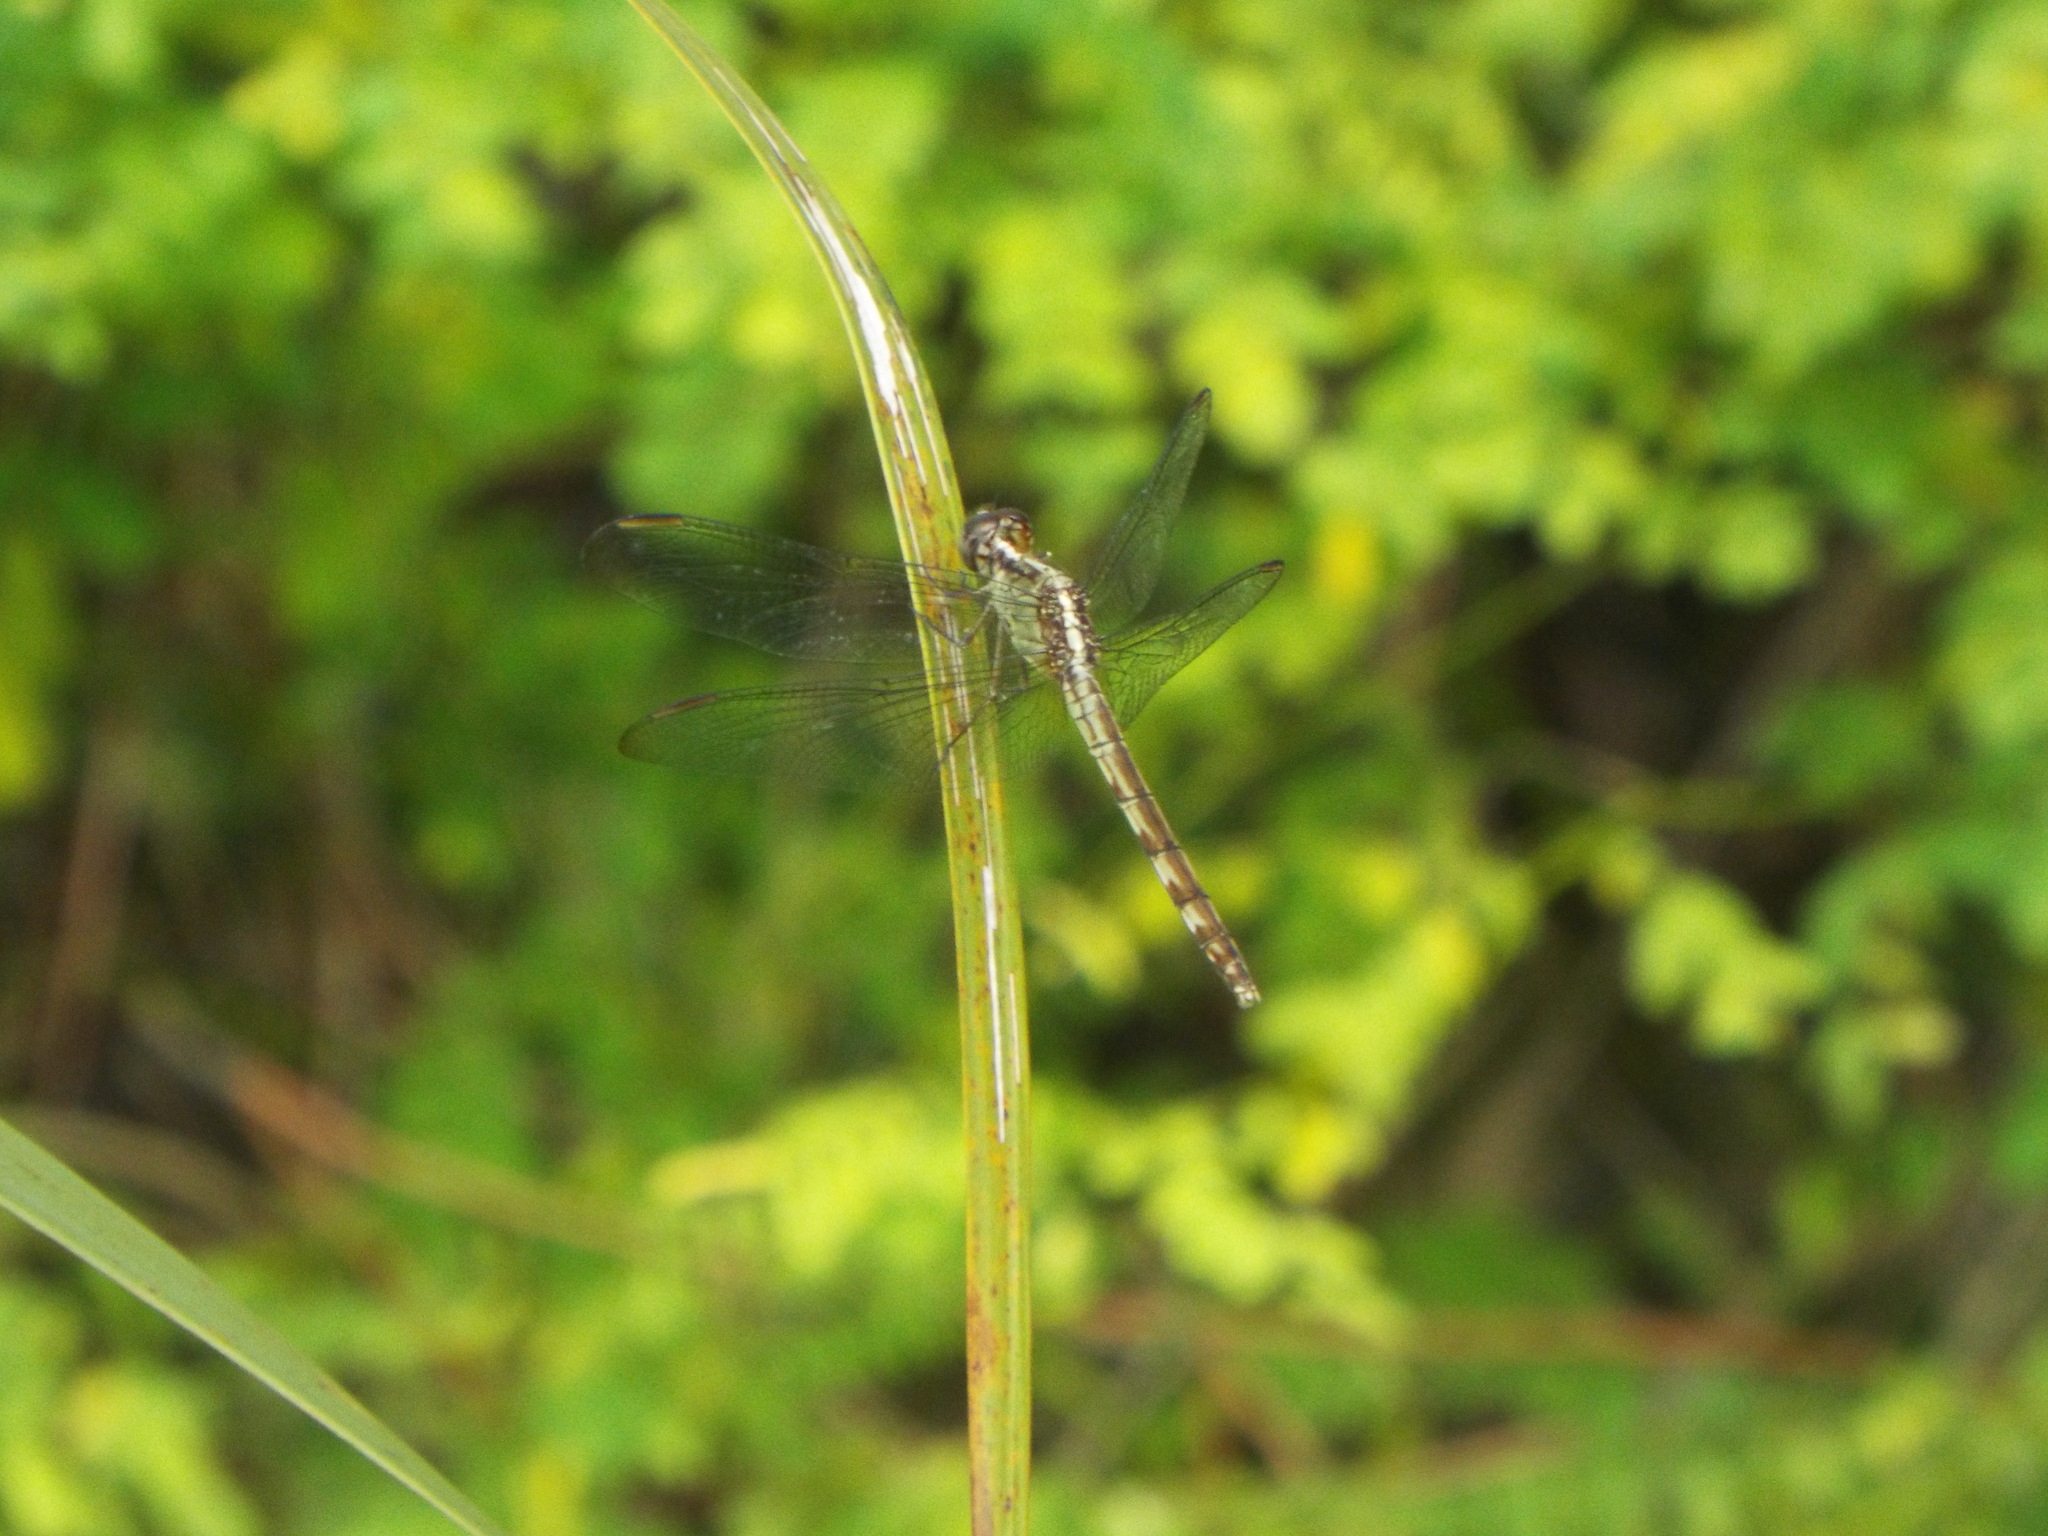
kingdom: Animalia
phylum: Arthropoda
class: Insecta
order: Odonata
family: Libellulidae
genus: Erythrodiplax
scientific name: Erythrodiplax umbrata
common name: Band-winged dragonlet
